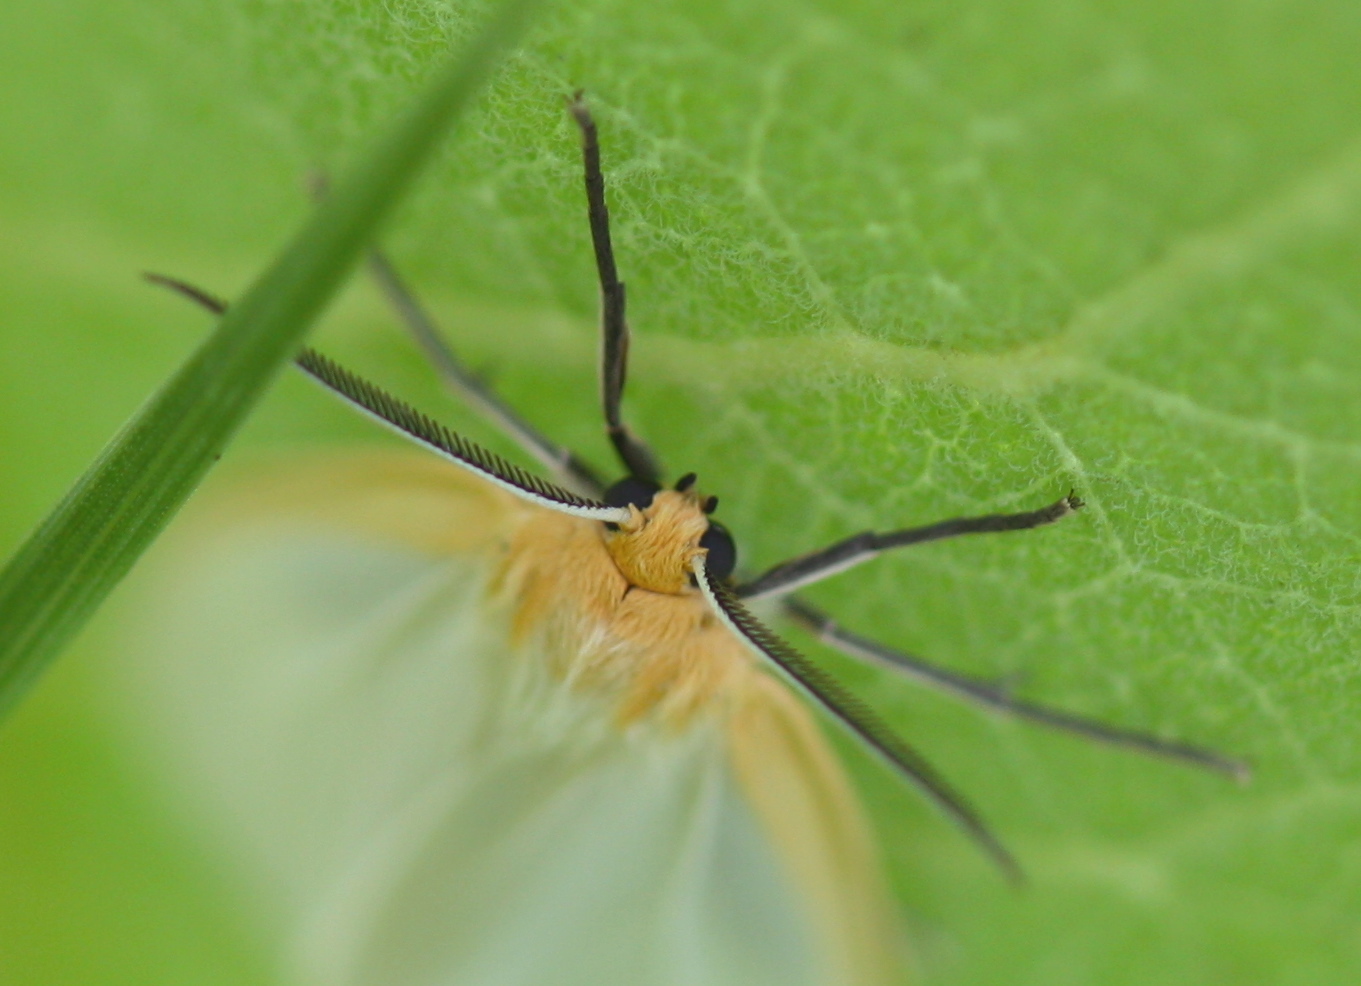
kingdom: Animalia
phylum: Arthropoda
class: Insecta
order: Lepidoptera
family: Erebidae
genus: Cycnia
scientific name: Cycnia tenera
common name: Delicate cycnia moth
